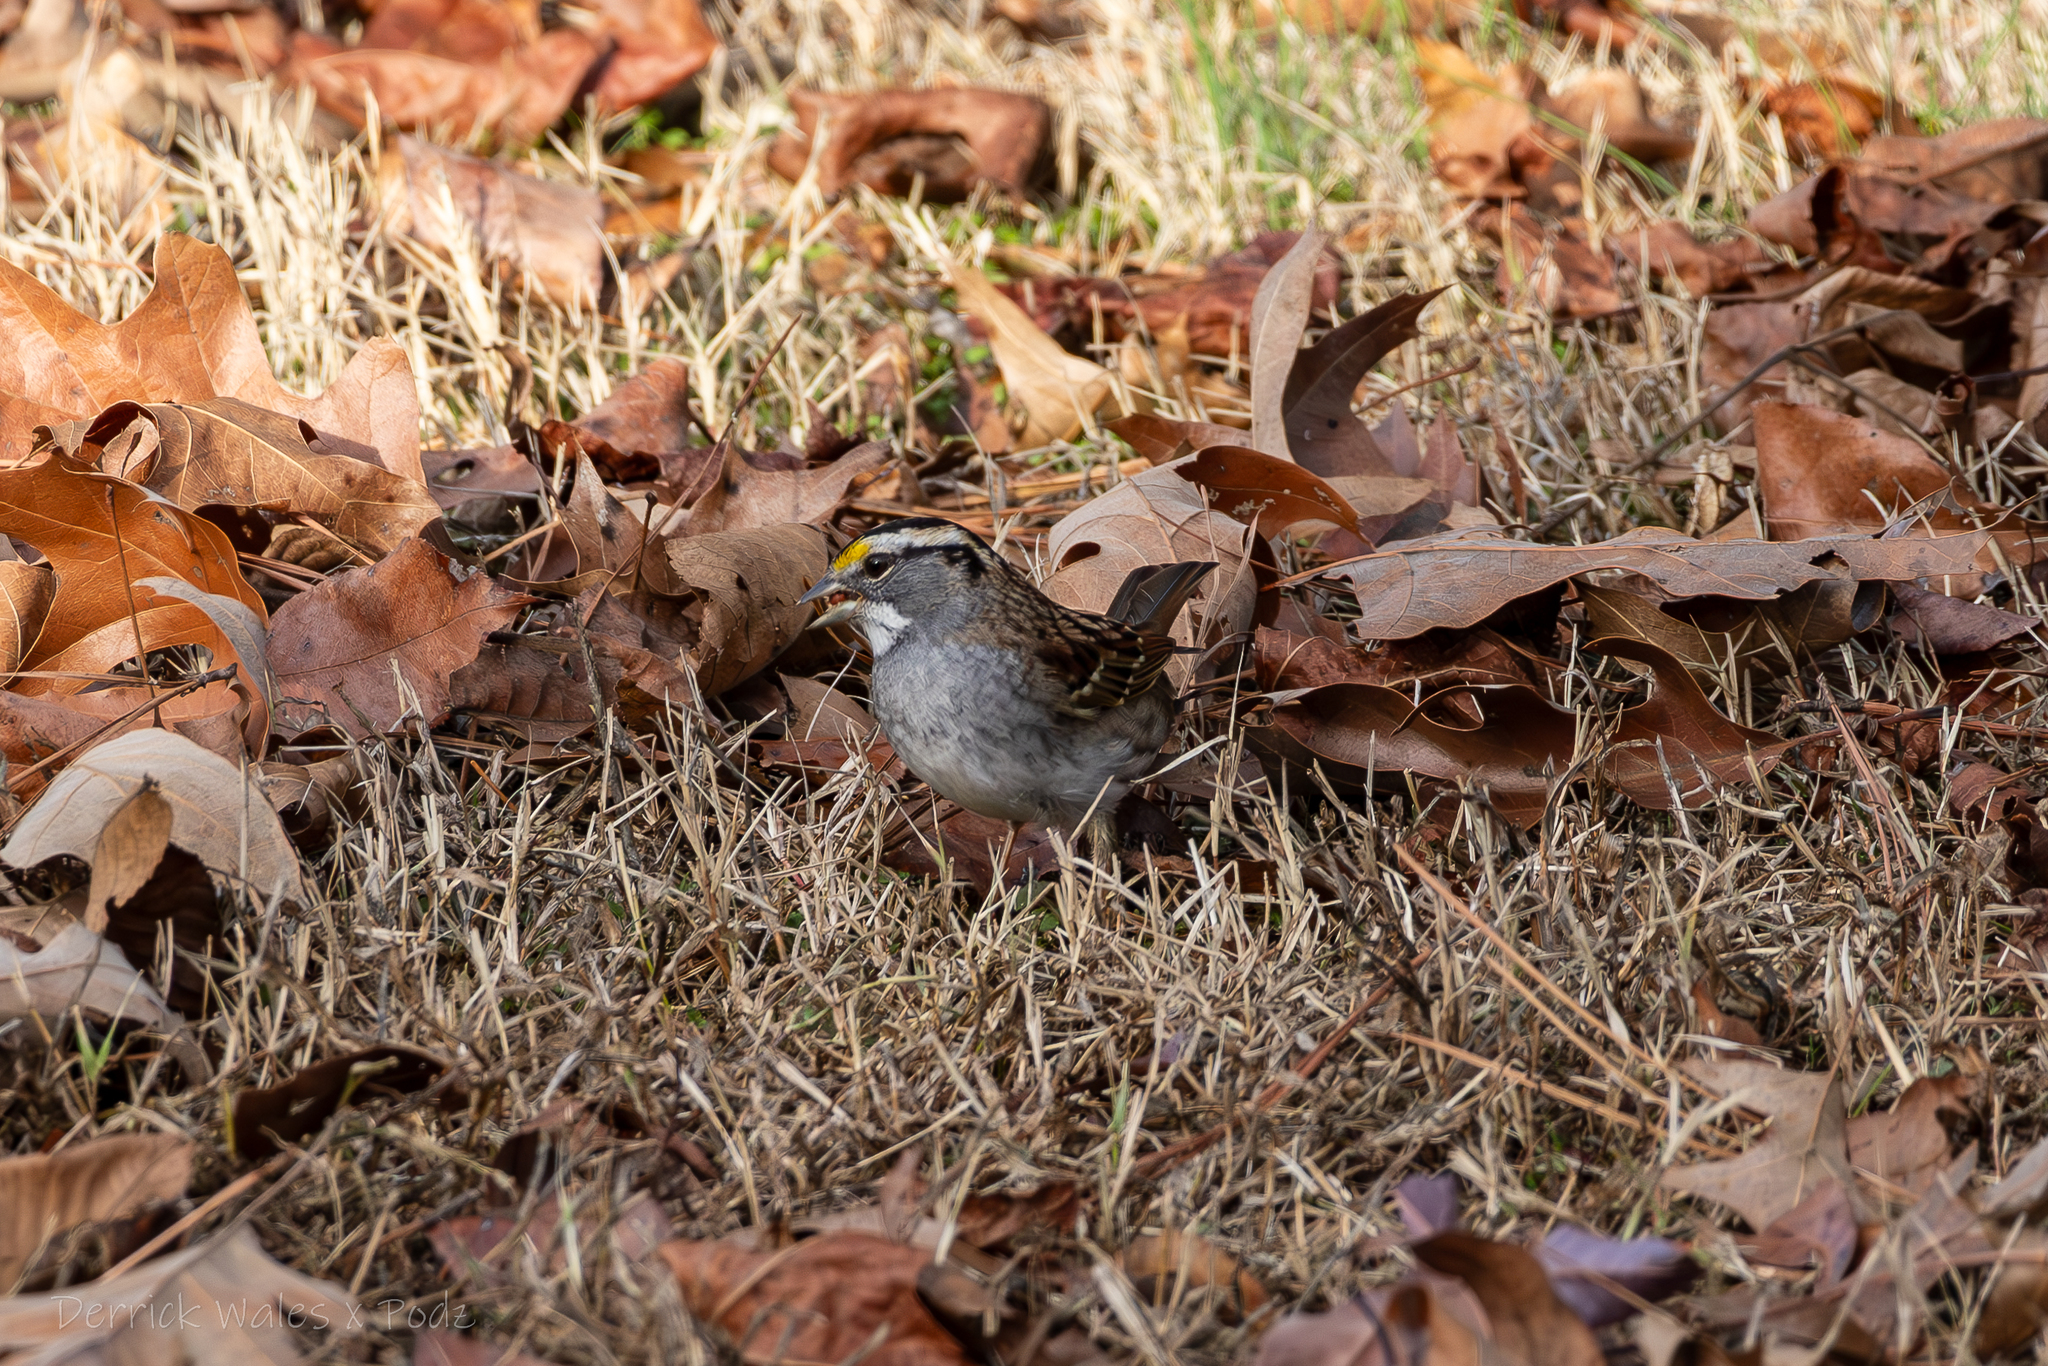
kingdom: Animalia
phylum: Chordata
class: Aves
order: Passeriformes
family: Passerellidae
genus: Zonotrichia
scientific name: Zonotrichia albicollis
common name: White-throated sparrow
